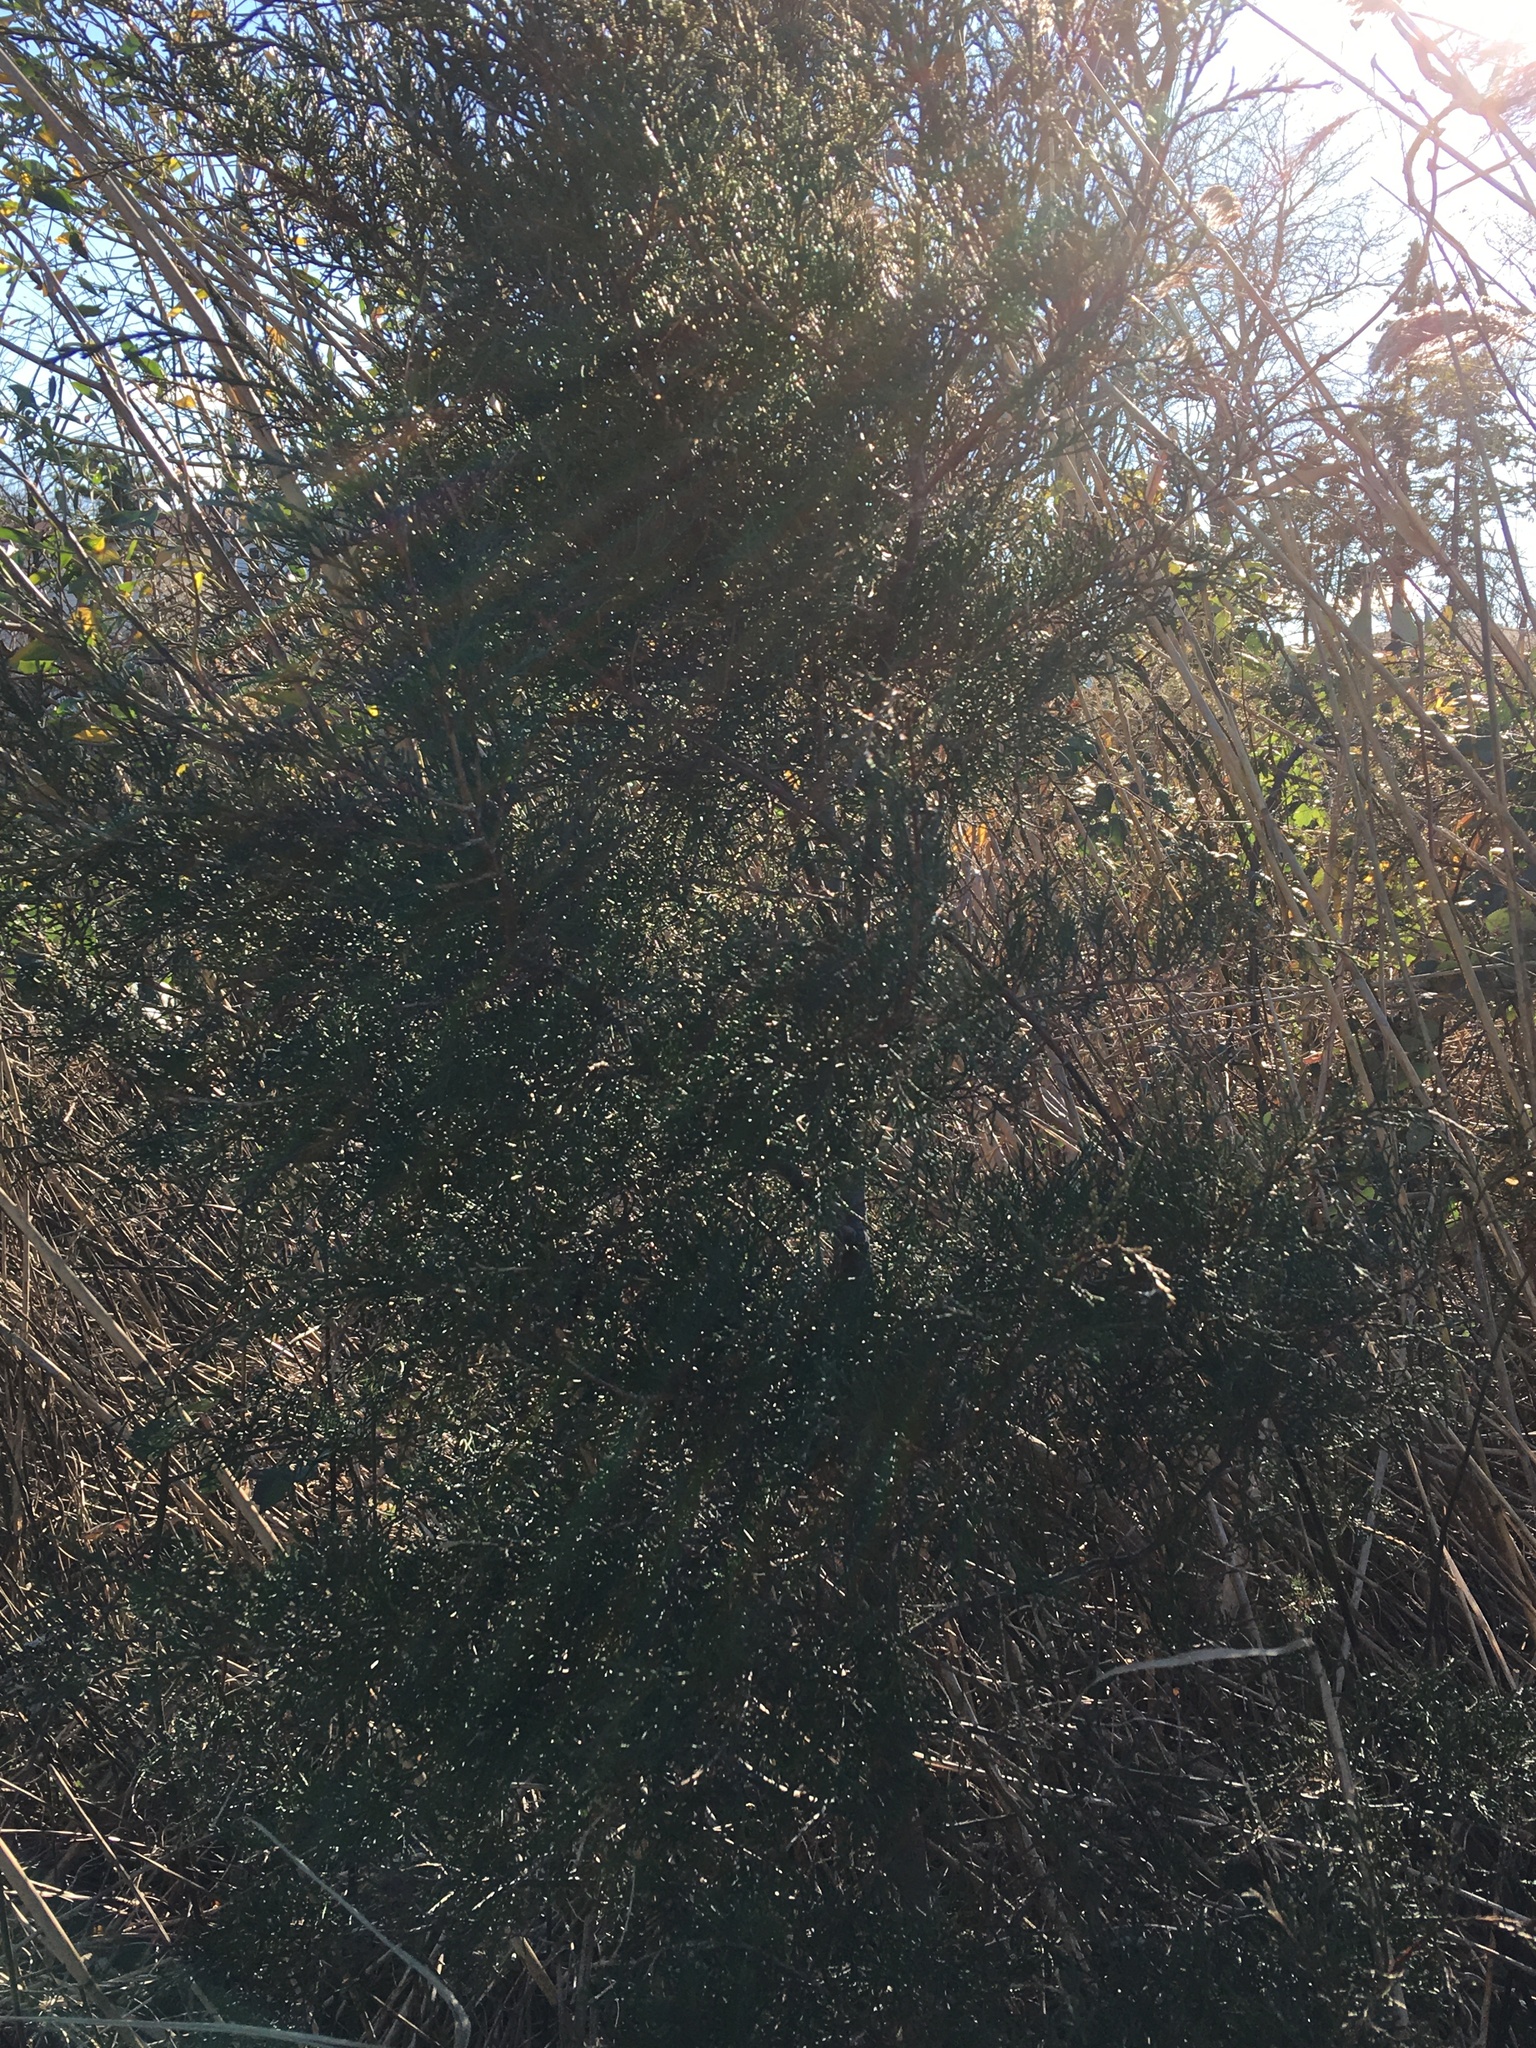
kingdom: Plantae
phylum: Tracheophyta
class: Pinopsida
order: Pinales
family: Cupressaceae
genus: Juniperus
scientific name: Juniperus virginiana
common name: Red juniper
